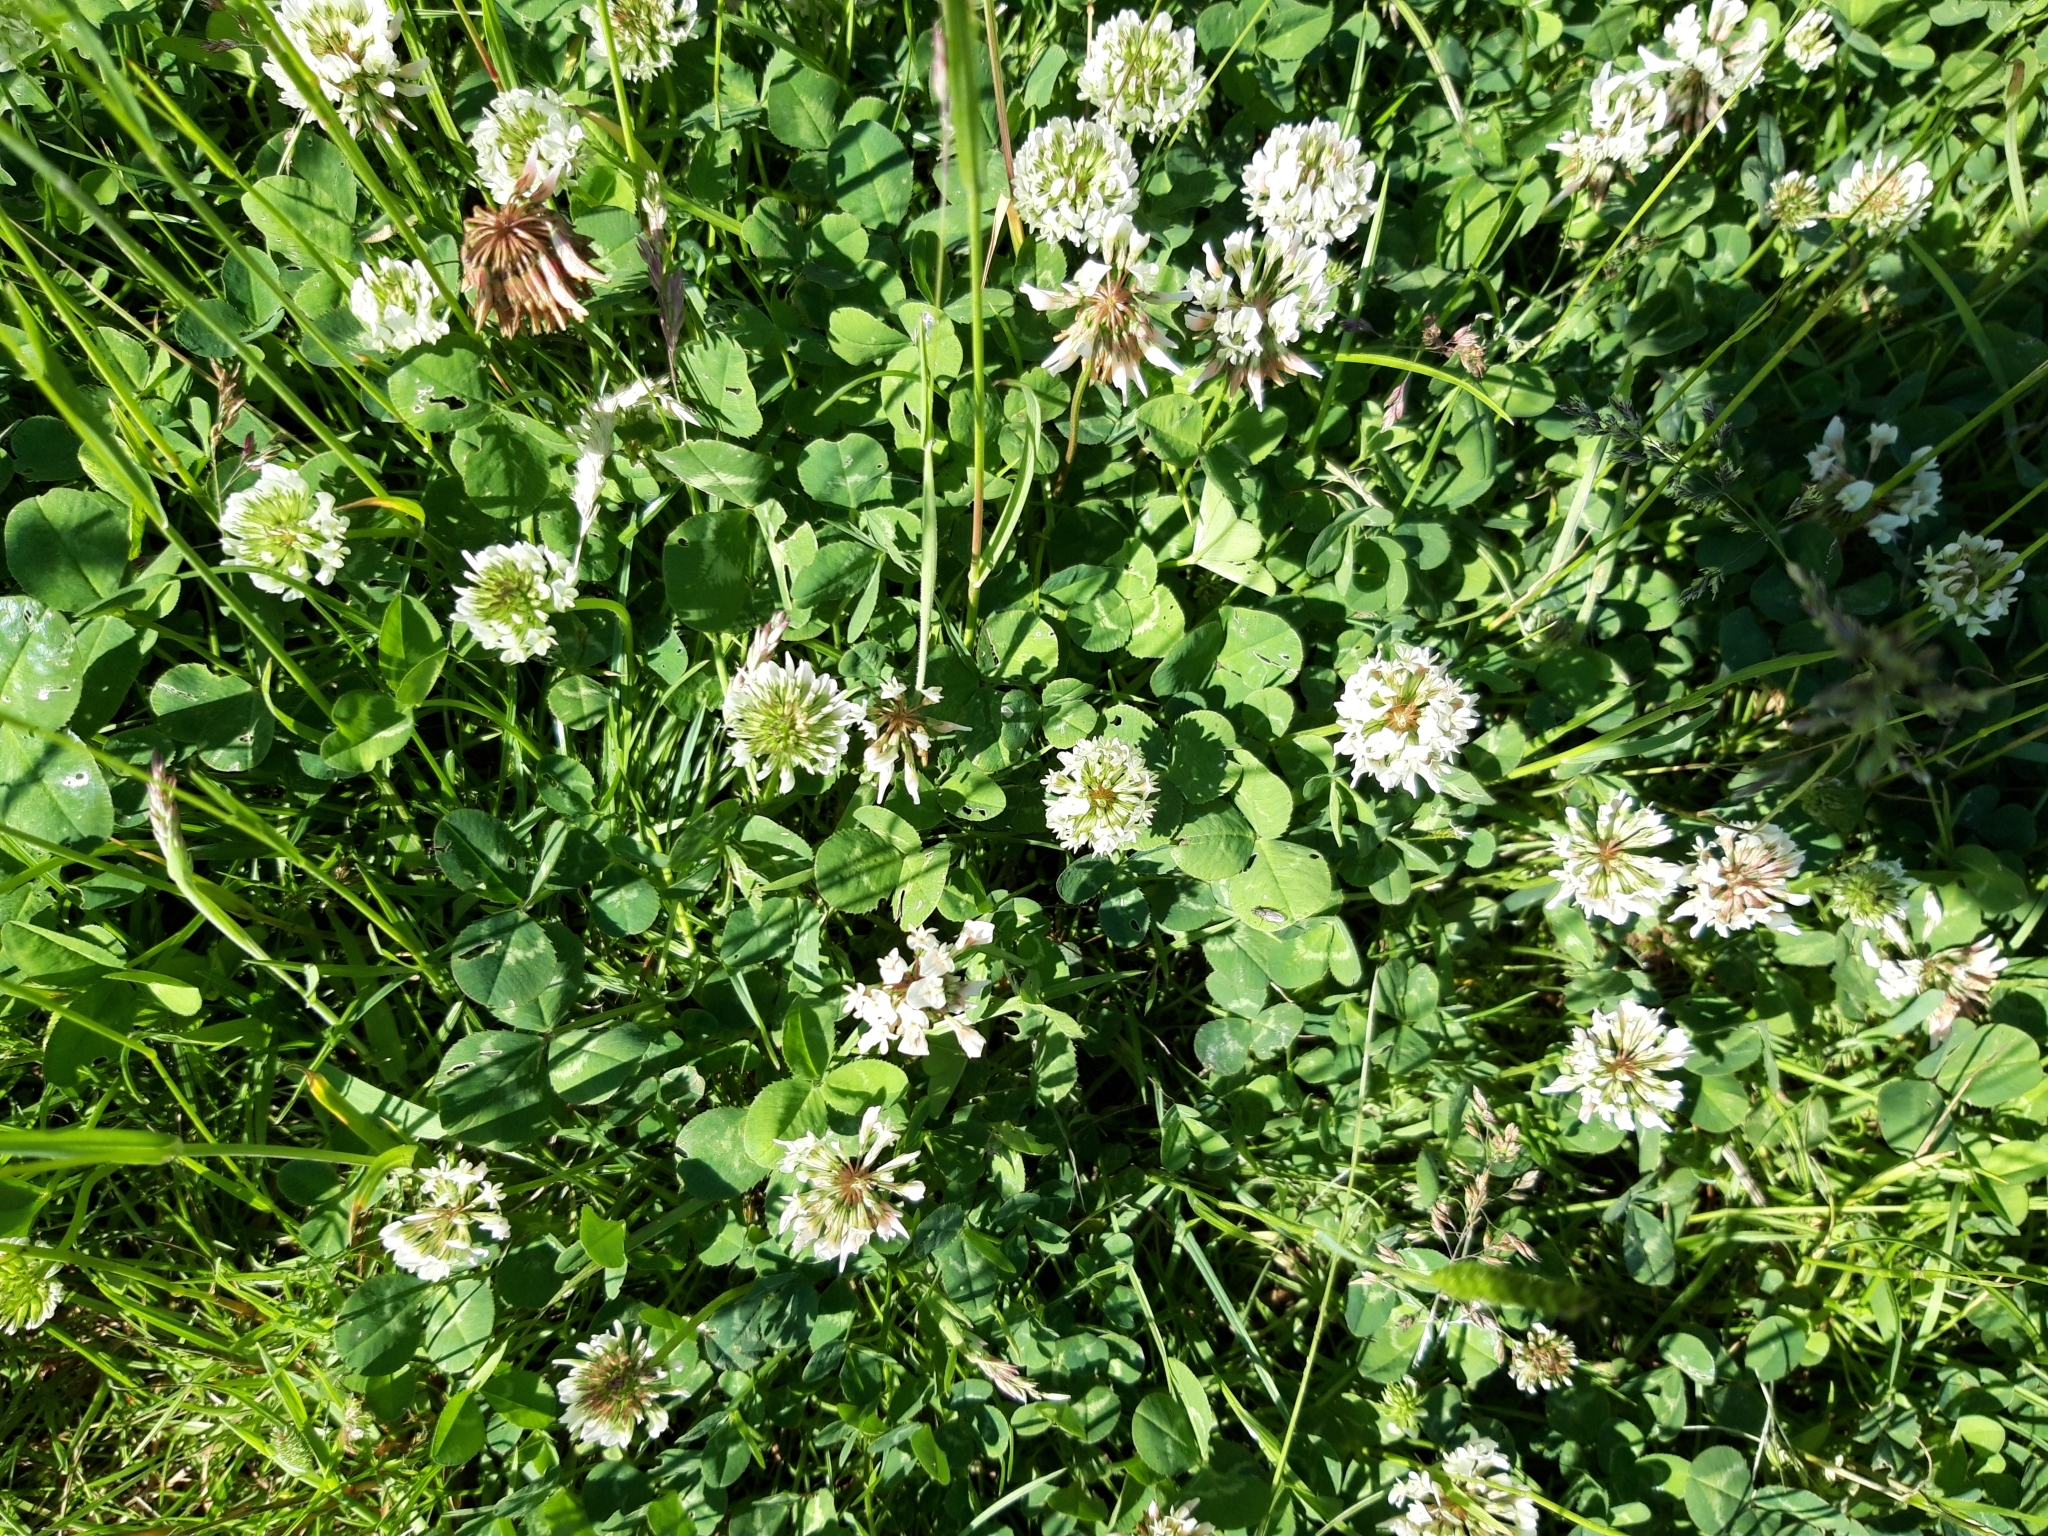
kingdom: Plantae
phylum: Tracheophyta
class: Magnoliopsida
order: Fabales
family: Fabaceae
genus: Trifolium
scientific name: Trifolium repens
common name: White clover
